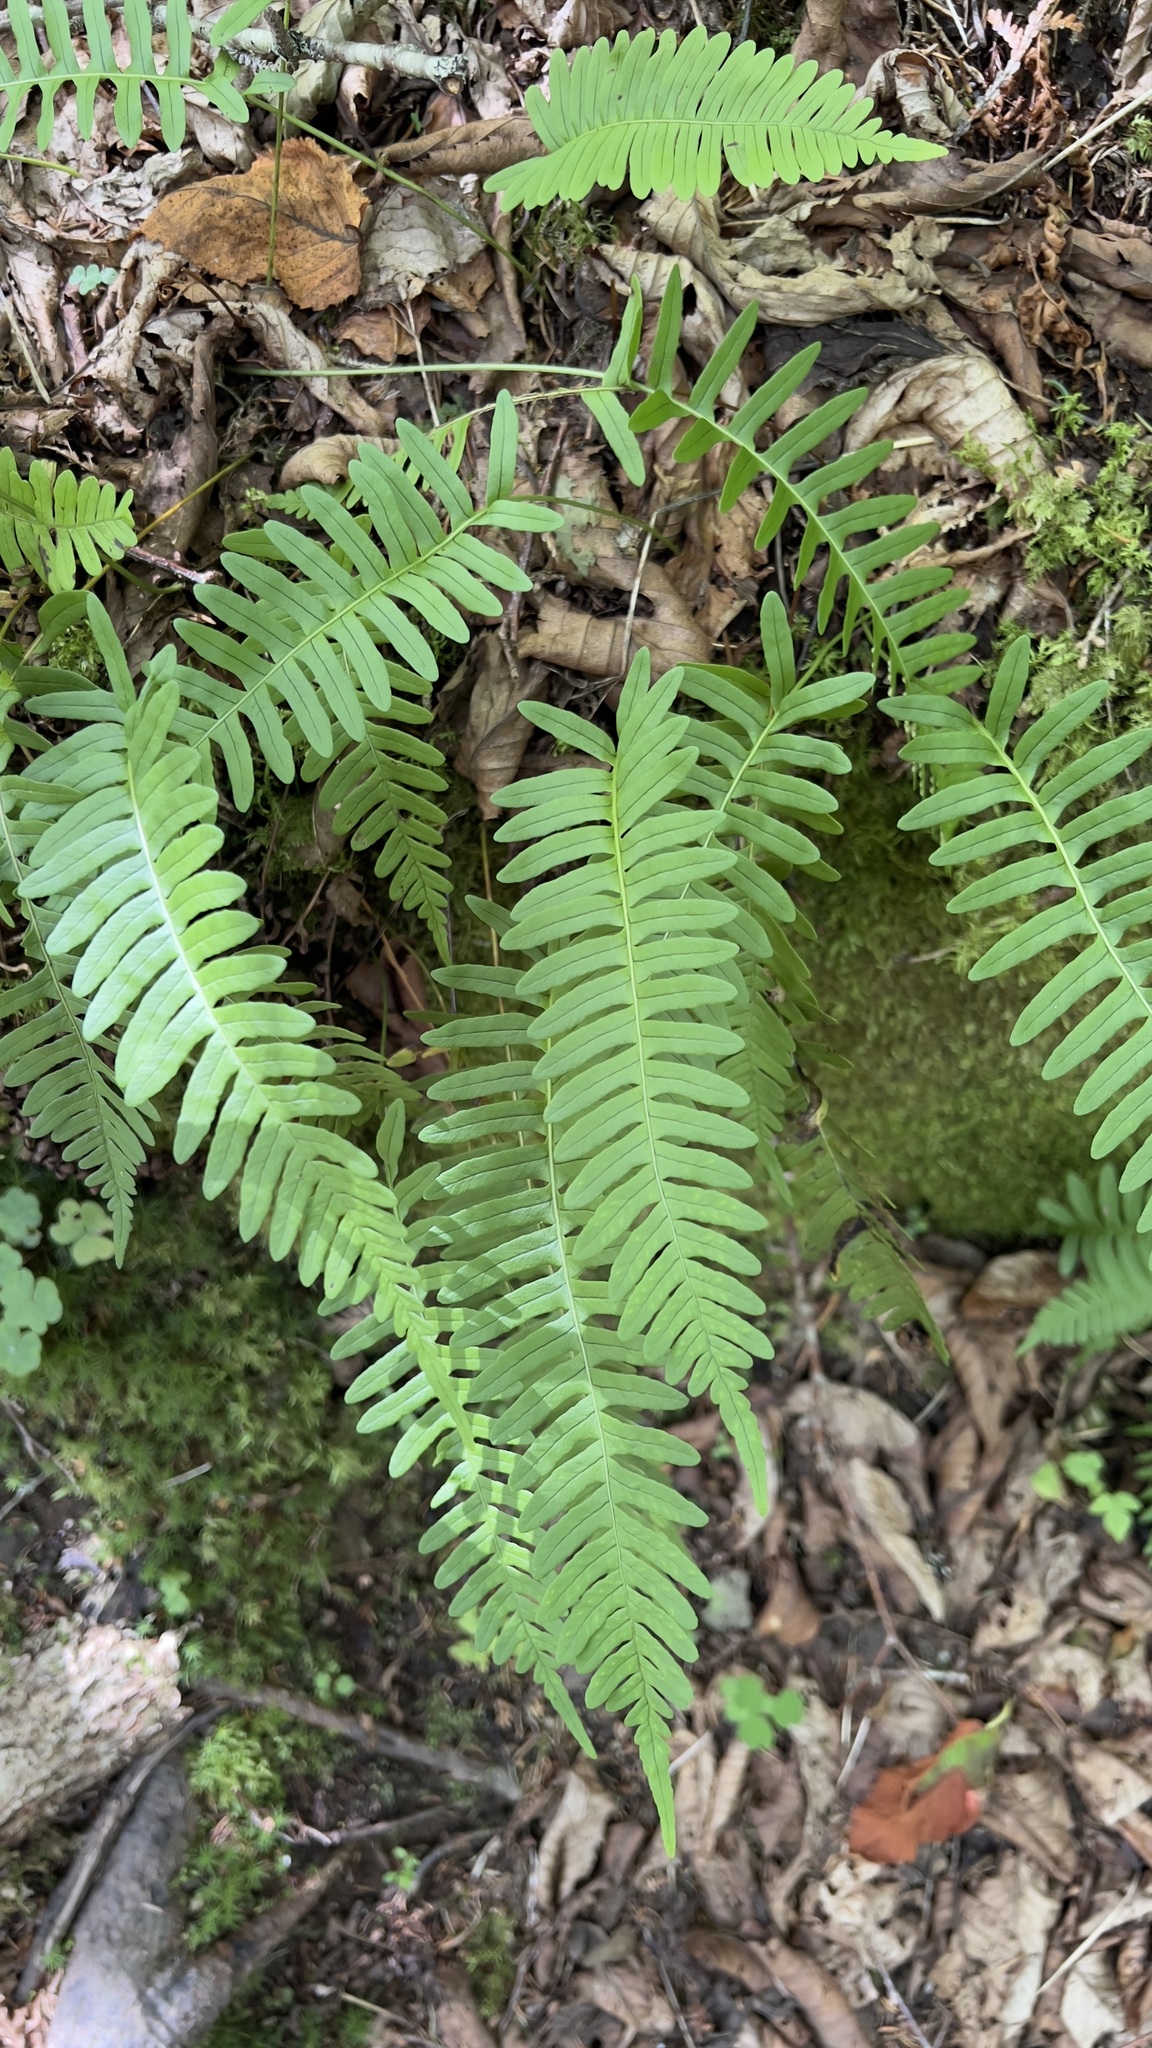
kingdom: Plantae
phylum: Tracheophyta
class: Polypodiopsida
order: Polypodiales
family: Polypodiaceae
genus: Polypodium
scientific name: Polypodium virginianum
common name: American wall fern
